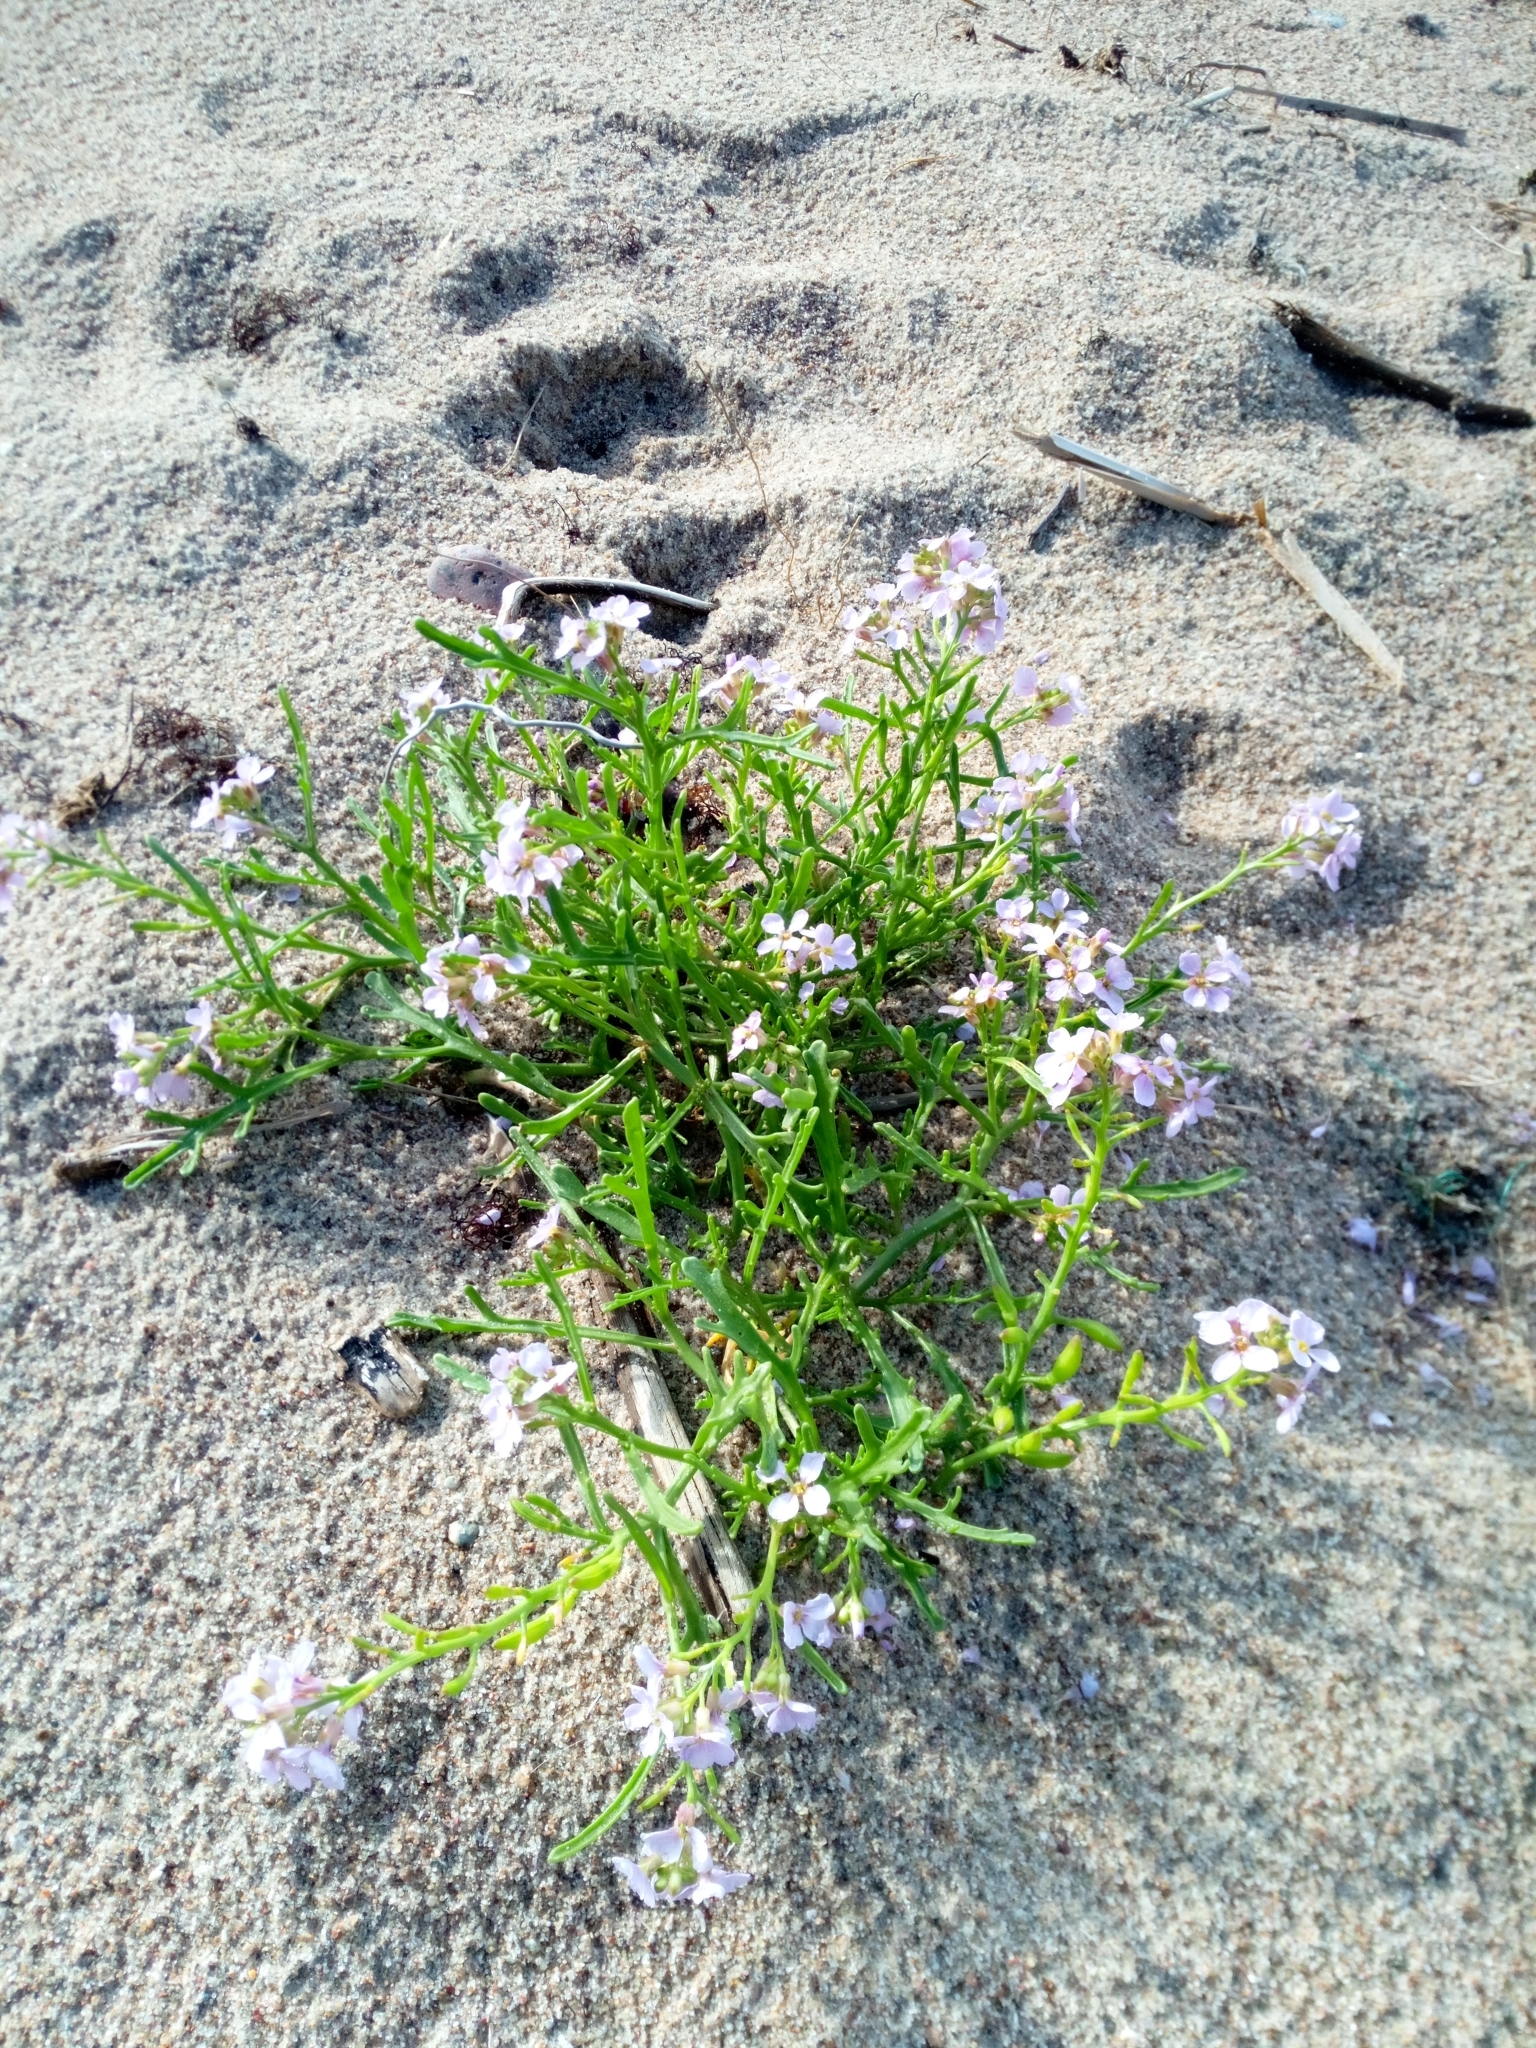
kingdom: Plantae
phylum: Tracheophyta
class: Magnoliopsida
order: Brassicales
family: Brassicaceae
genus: Cakile
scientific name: Cakile maritima
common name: Sea rocket
